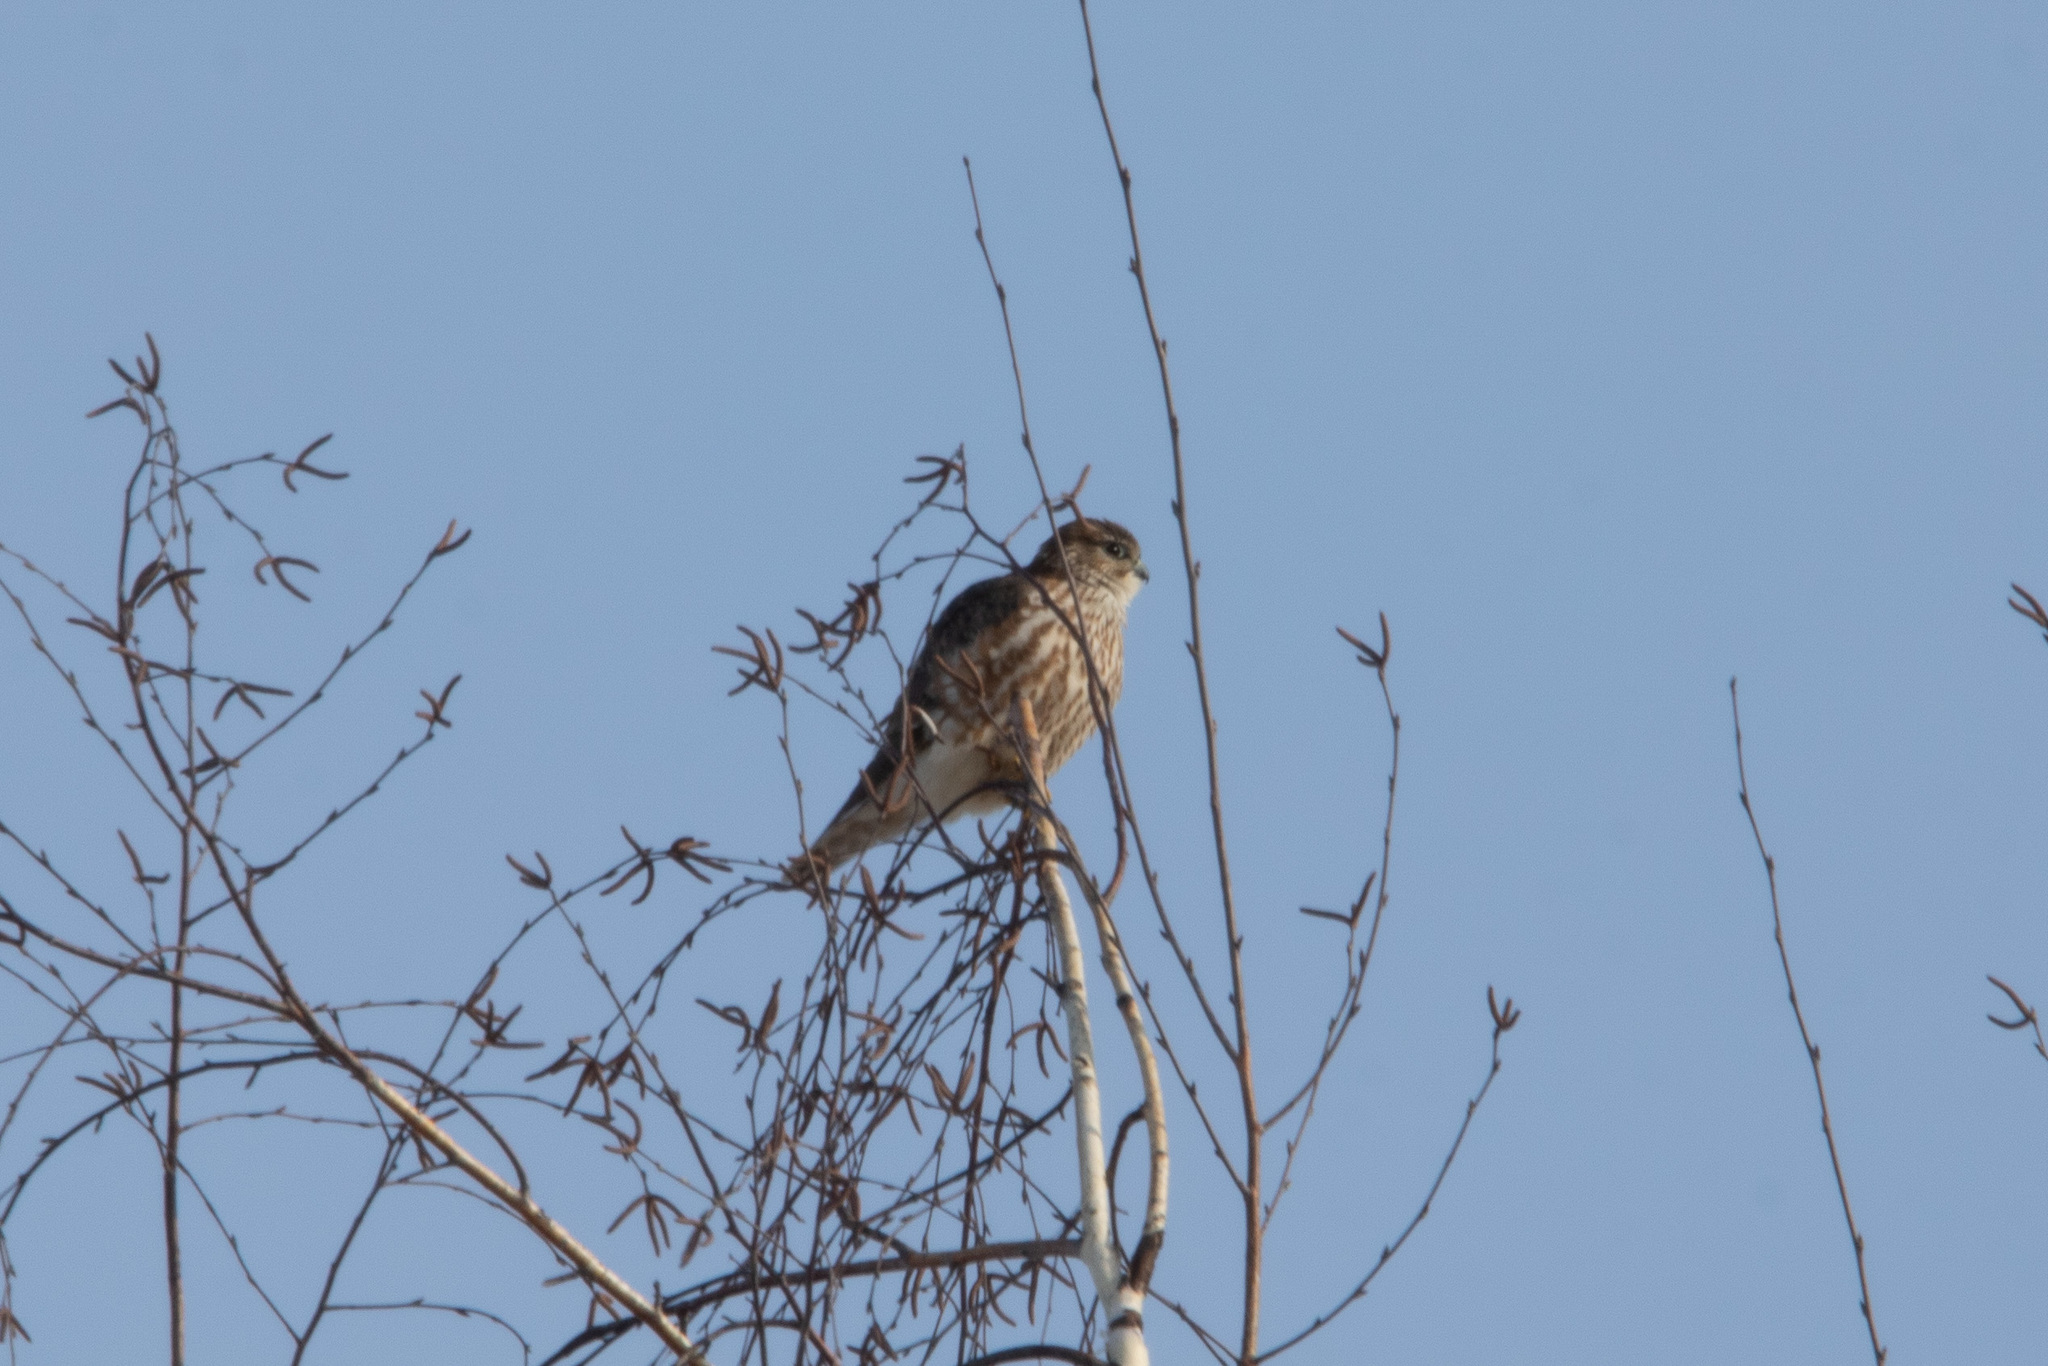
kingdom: Animalia
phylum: Chordata
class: Aves
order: Falconiformes
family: Falconidae
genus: Falco
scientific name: Falco columbarius
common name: Merlin
